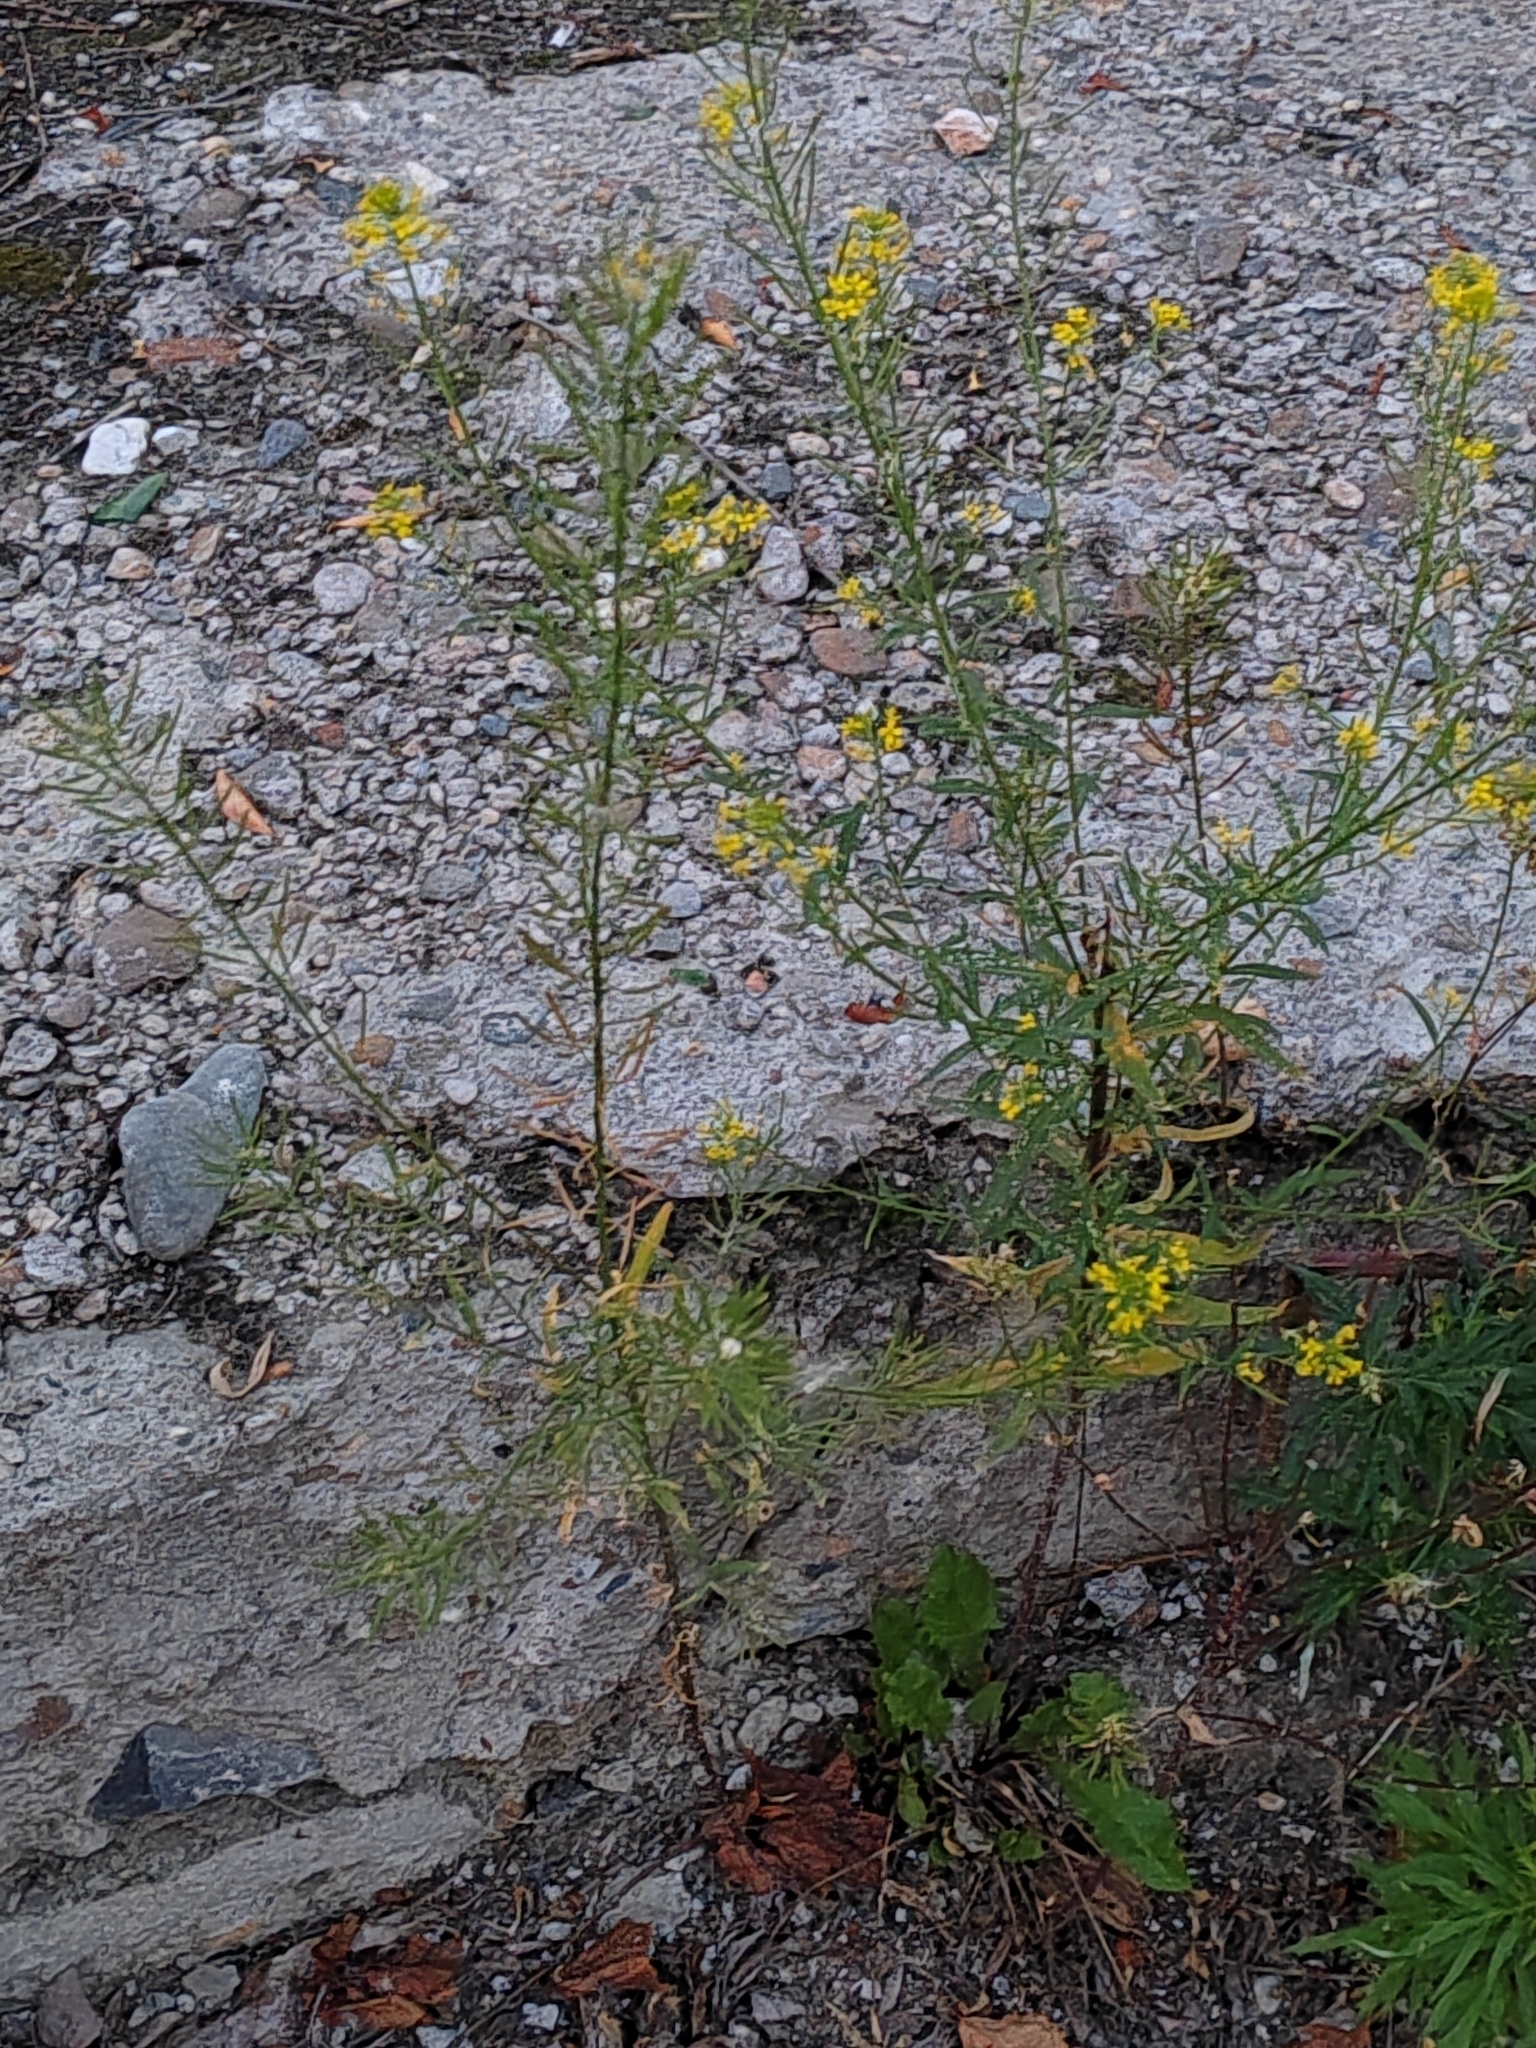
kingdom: Plantae
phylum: Tracheophyta
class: Magnoliopsida
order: Brassicales
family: Brassicaceae
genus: Erysimum
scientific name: Erysimum cheiranthoides
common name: Treacle mustard
